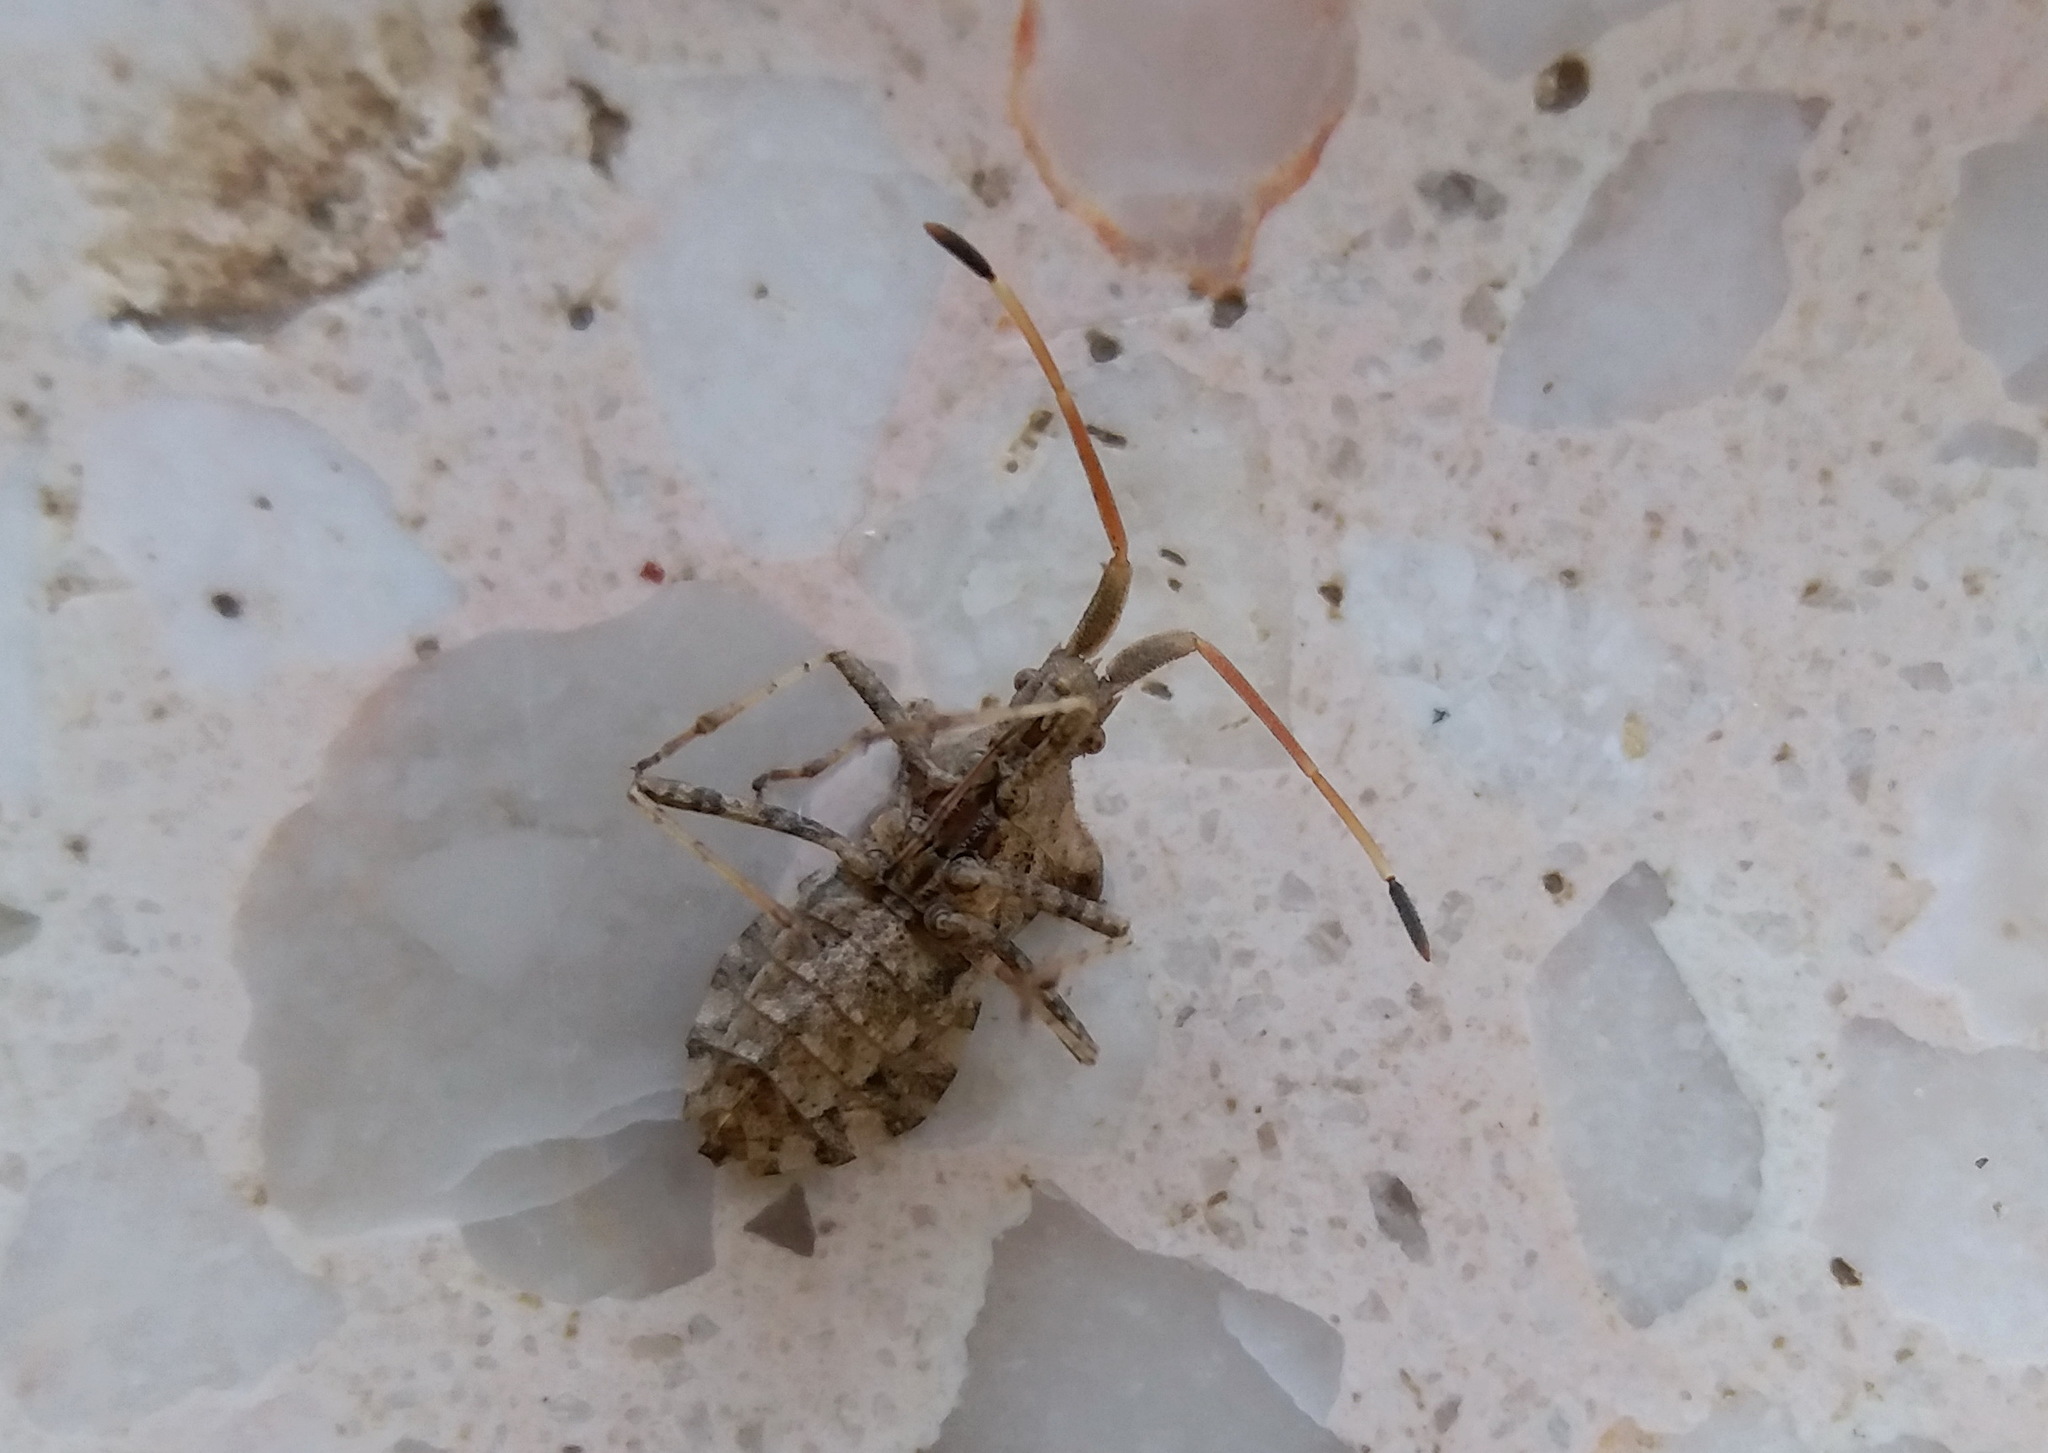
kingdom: Animalia
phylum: Arthropoda
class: Insecta
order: Hemiptera
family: Coreidae
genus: Centrocoris
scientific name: Centrocoris spiniger
